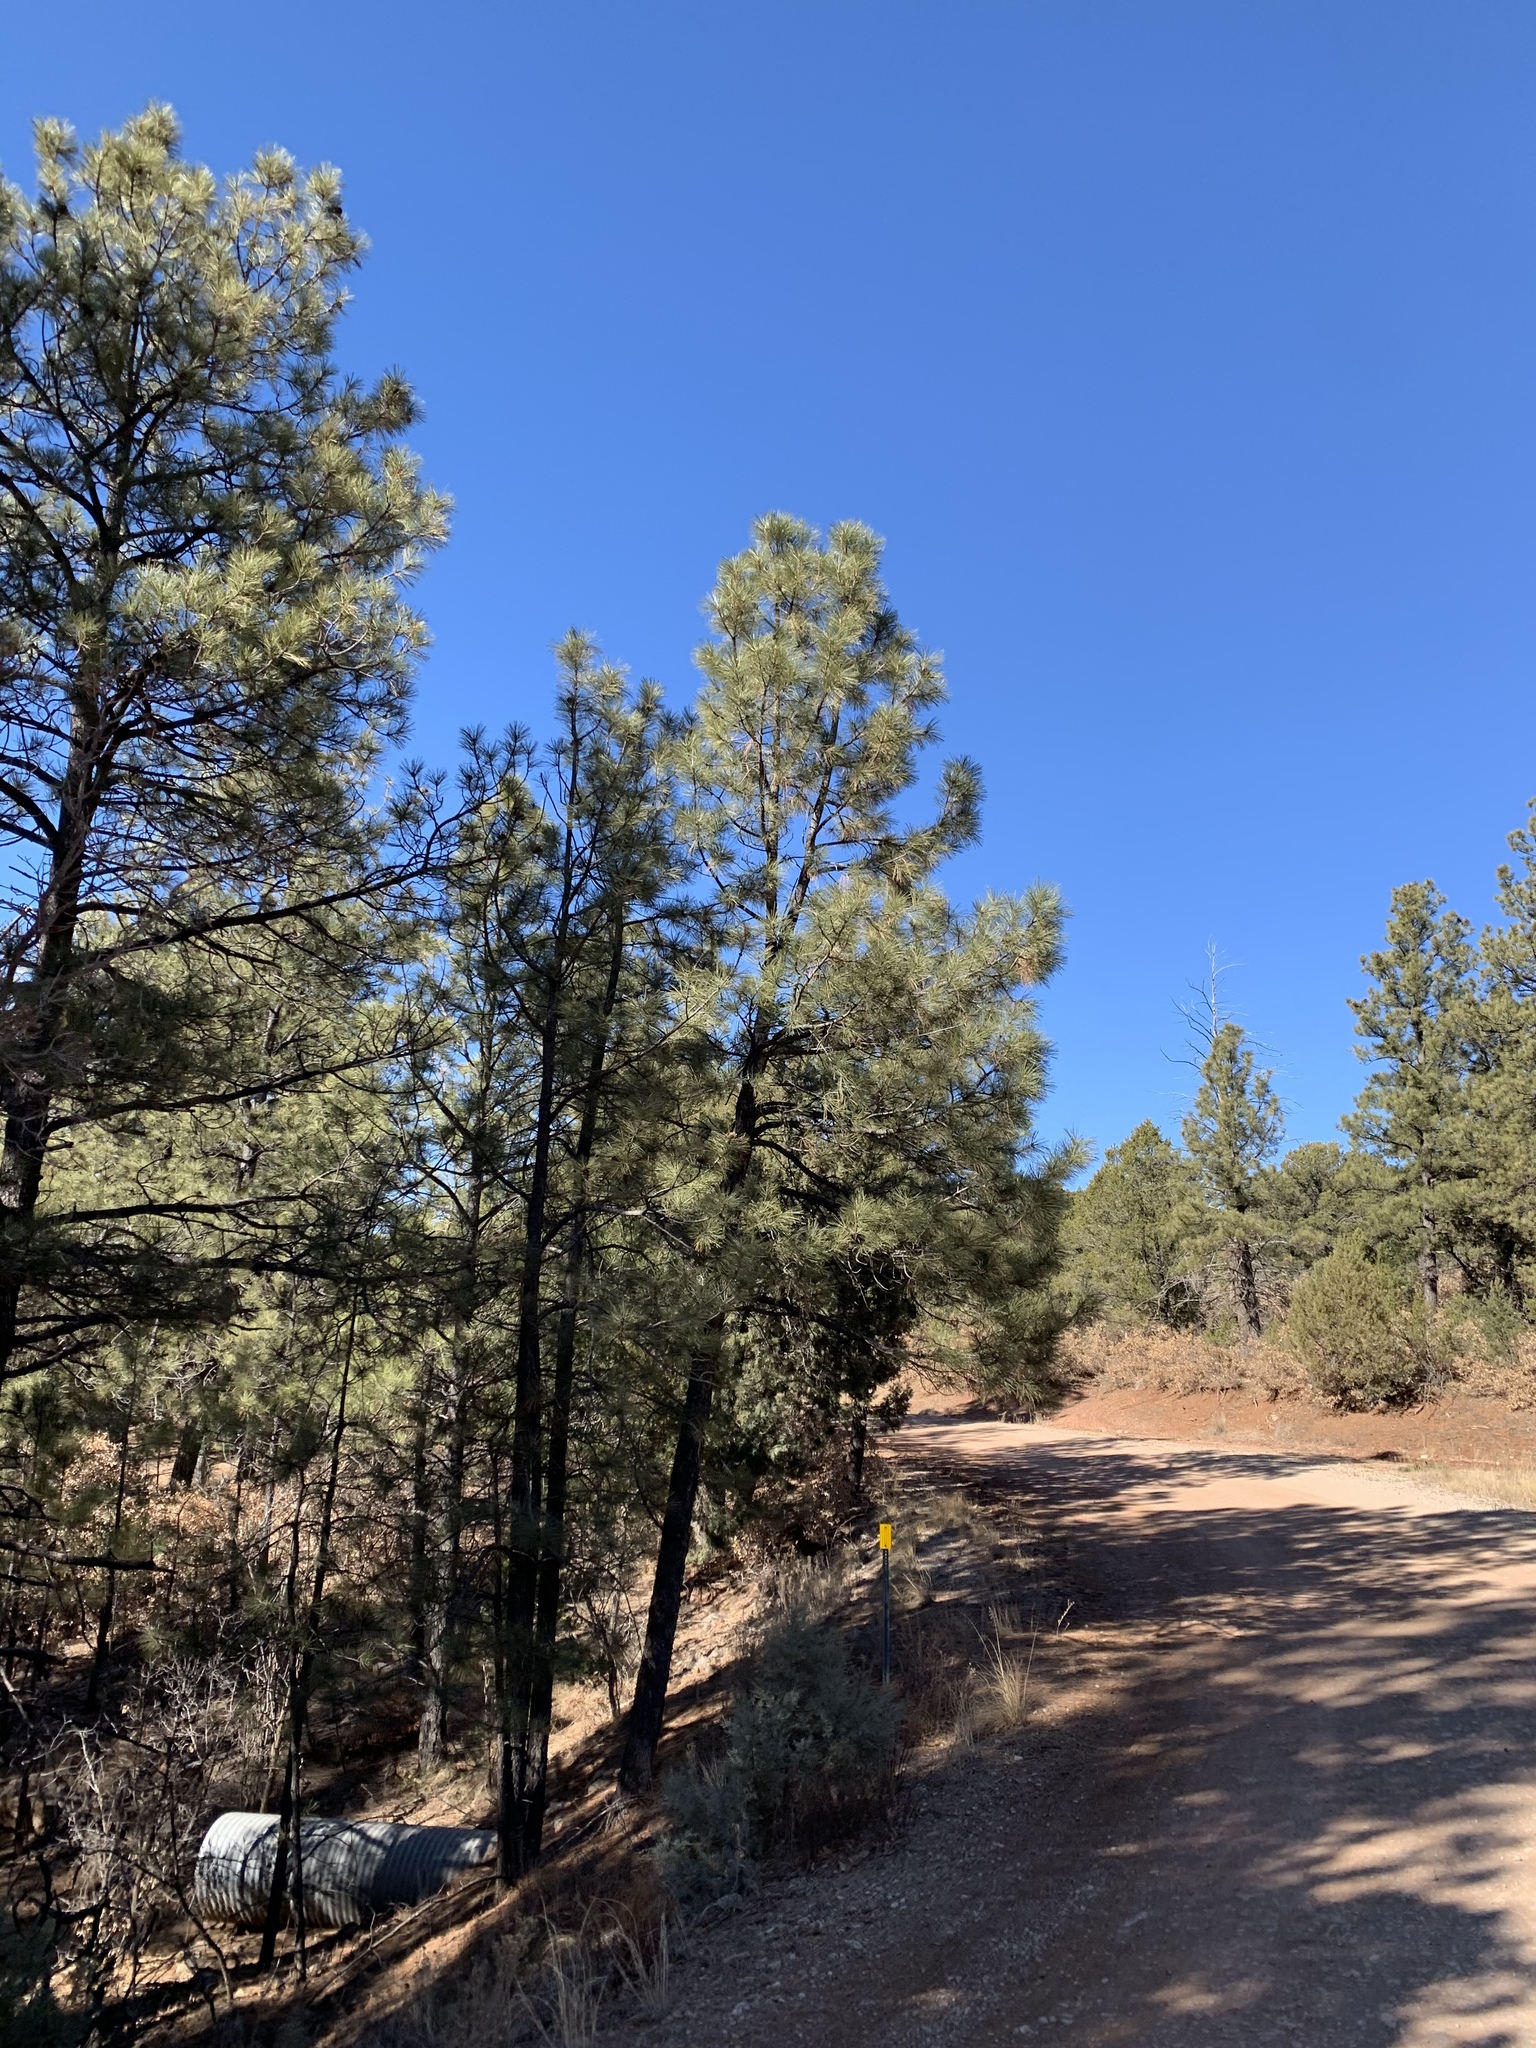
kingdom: Plantae
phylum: Tracheophyta
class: Pinopsida
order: Pinales
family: Pinaceae
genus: Pinus
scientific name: Pinus ponderosa
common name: Western yellow-pine
